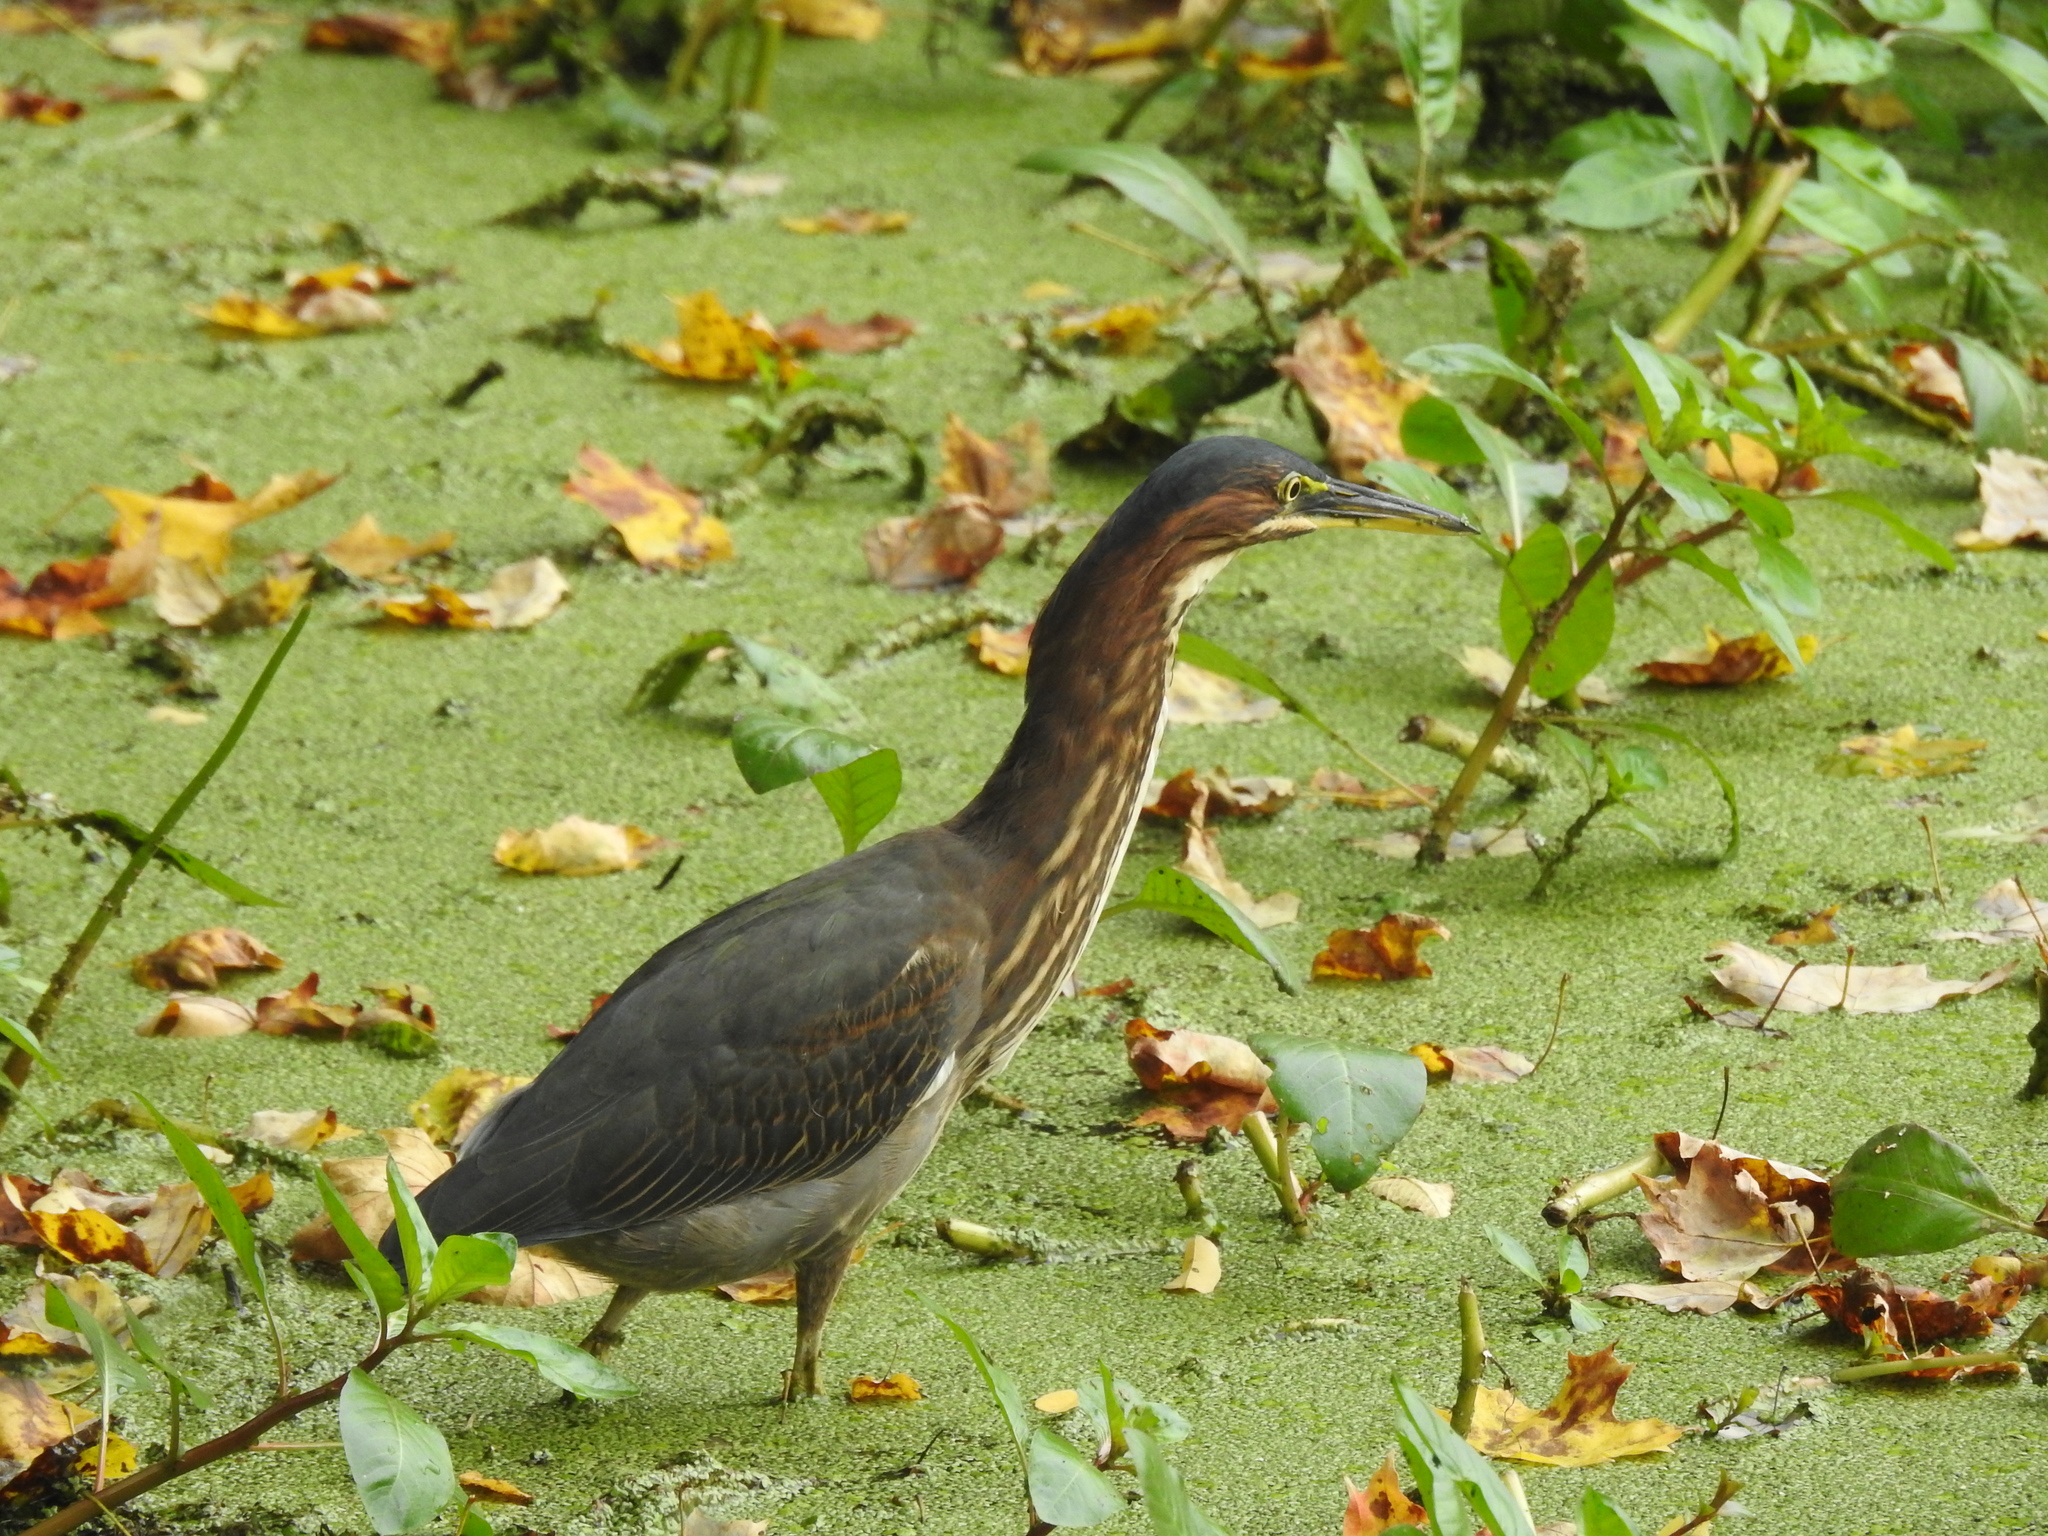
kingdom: Animalia
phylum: Chordata
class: Aves
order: Pelecaniformes
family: Ardeidae
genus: Butorides
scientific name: Butorides virescens
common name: Green heron
